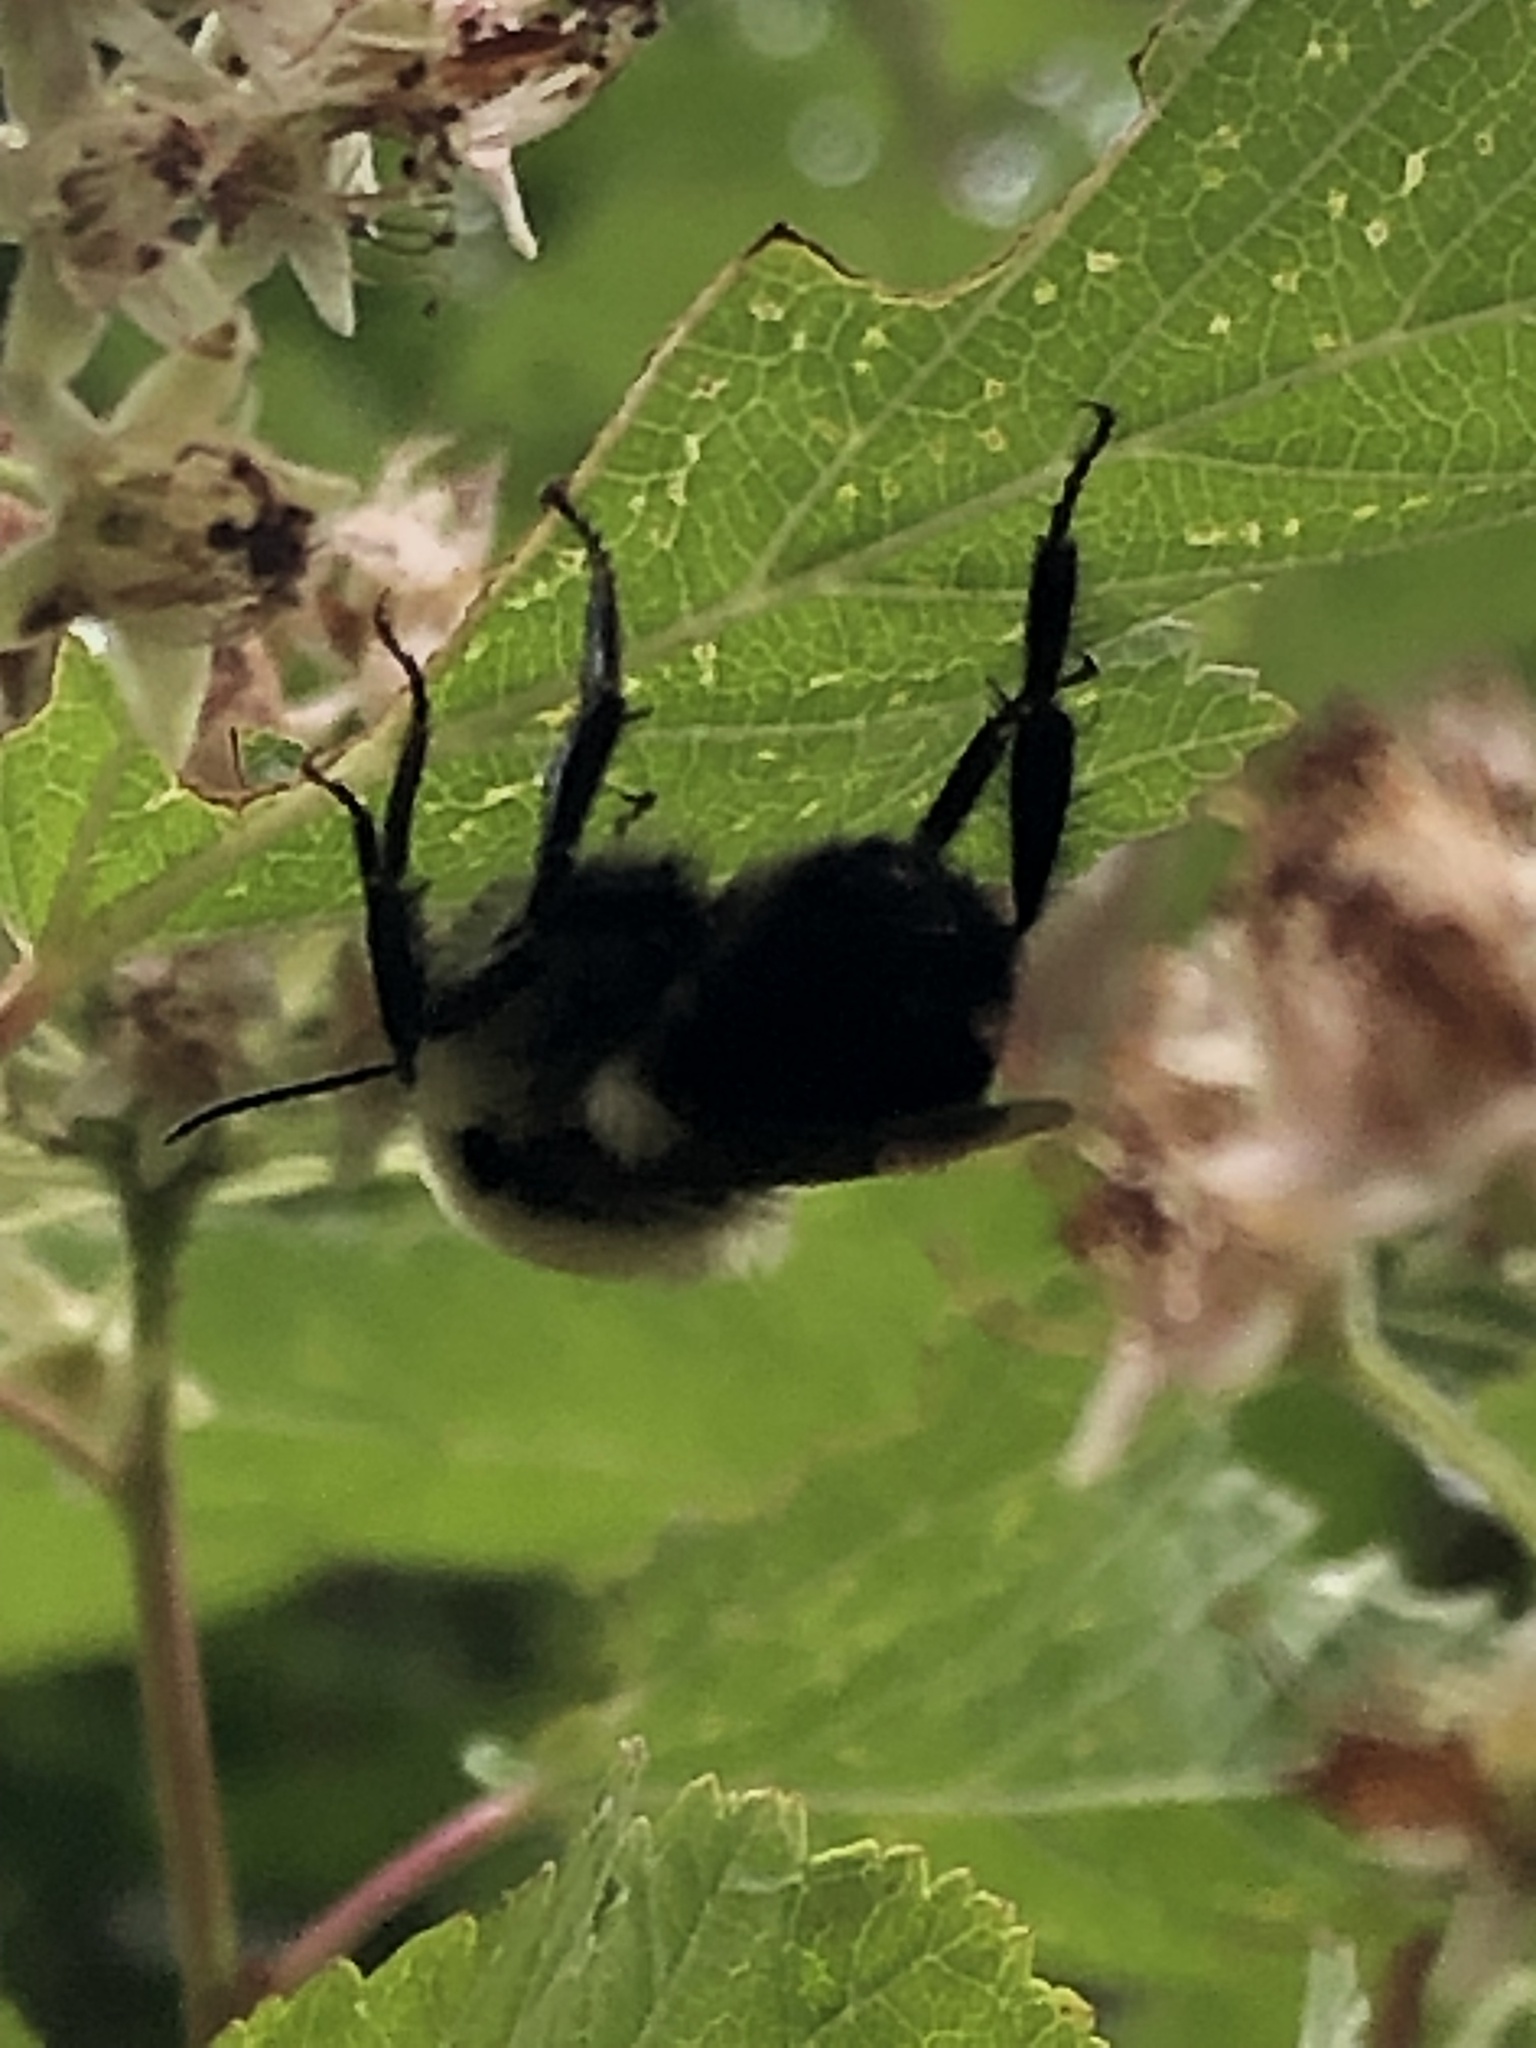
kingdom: Animalia
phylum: Arthropoda
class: Insecta
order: Hymenoptera
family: Apidae
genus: Bombus
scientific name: Bombus
